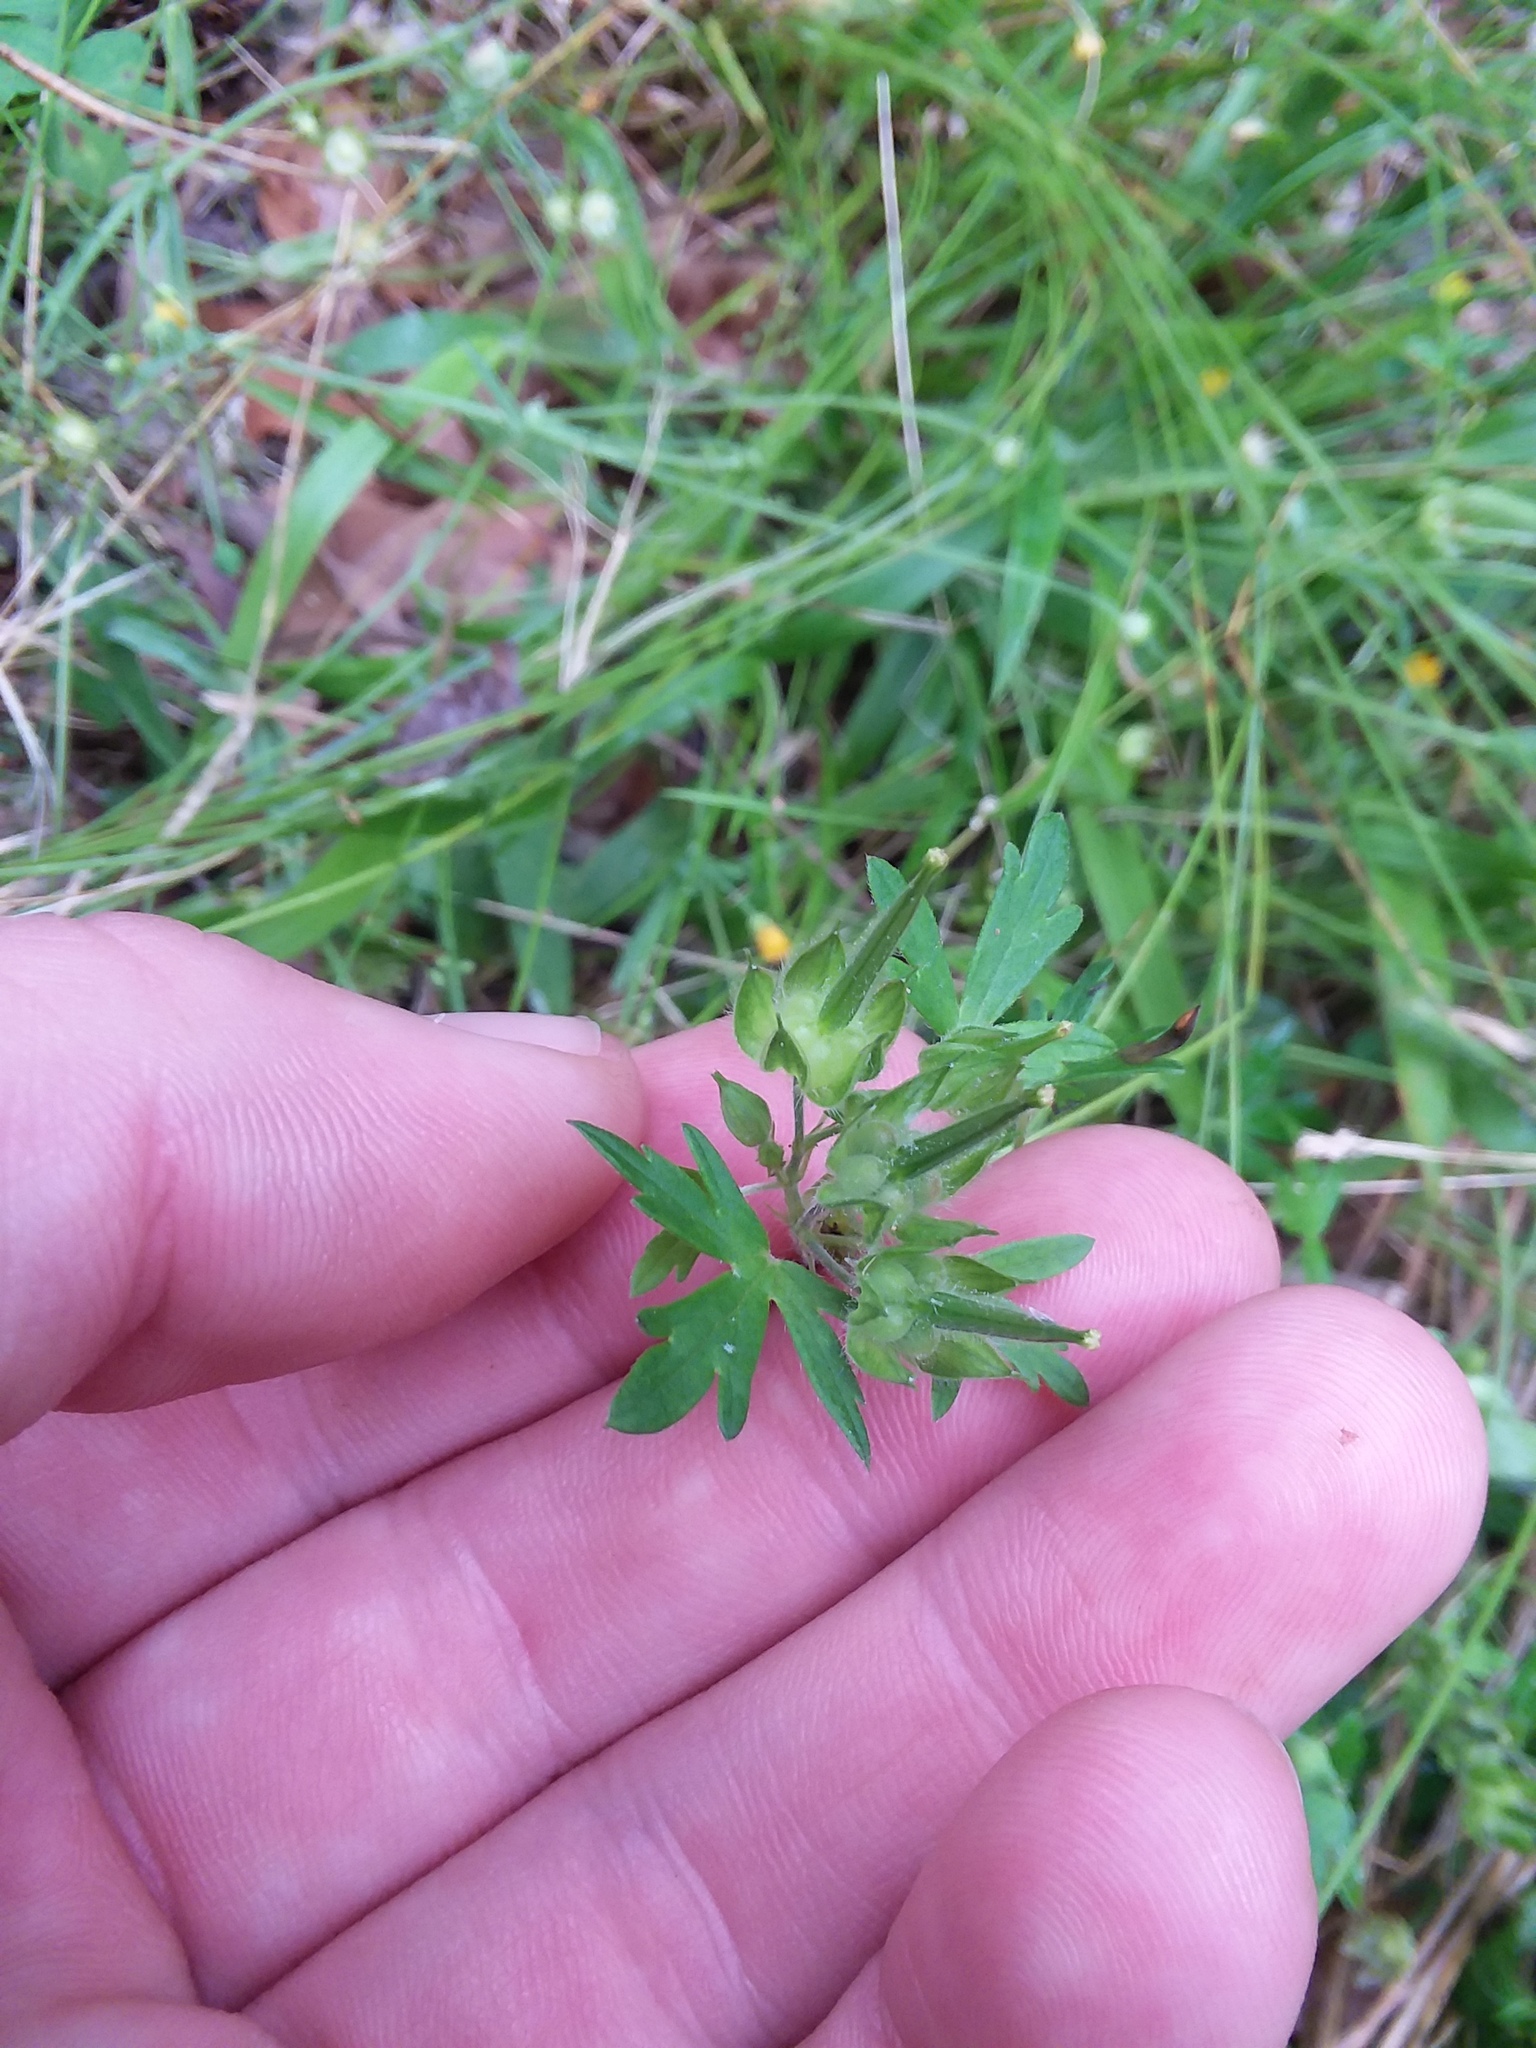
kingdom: Plantae
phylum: Tracheophyta
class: Magnoliopsida
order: Geraniales
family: Geraniaceae
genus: Geranium
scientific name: Geranium carolinianum
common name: Carolina crane's-bill
